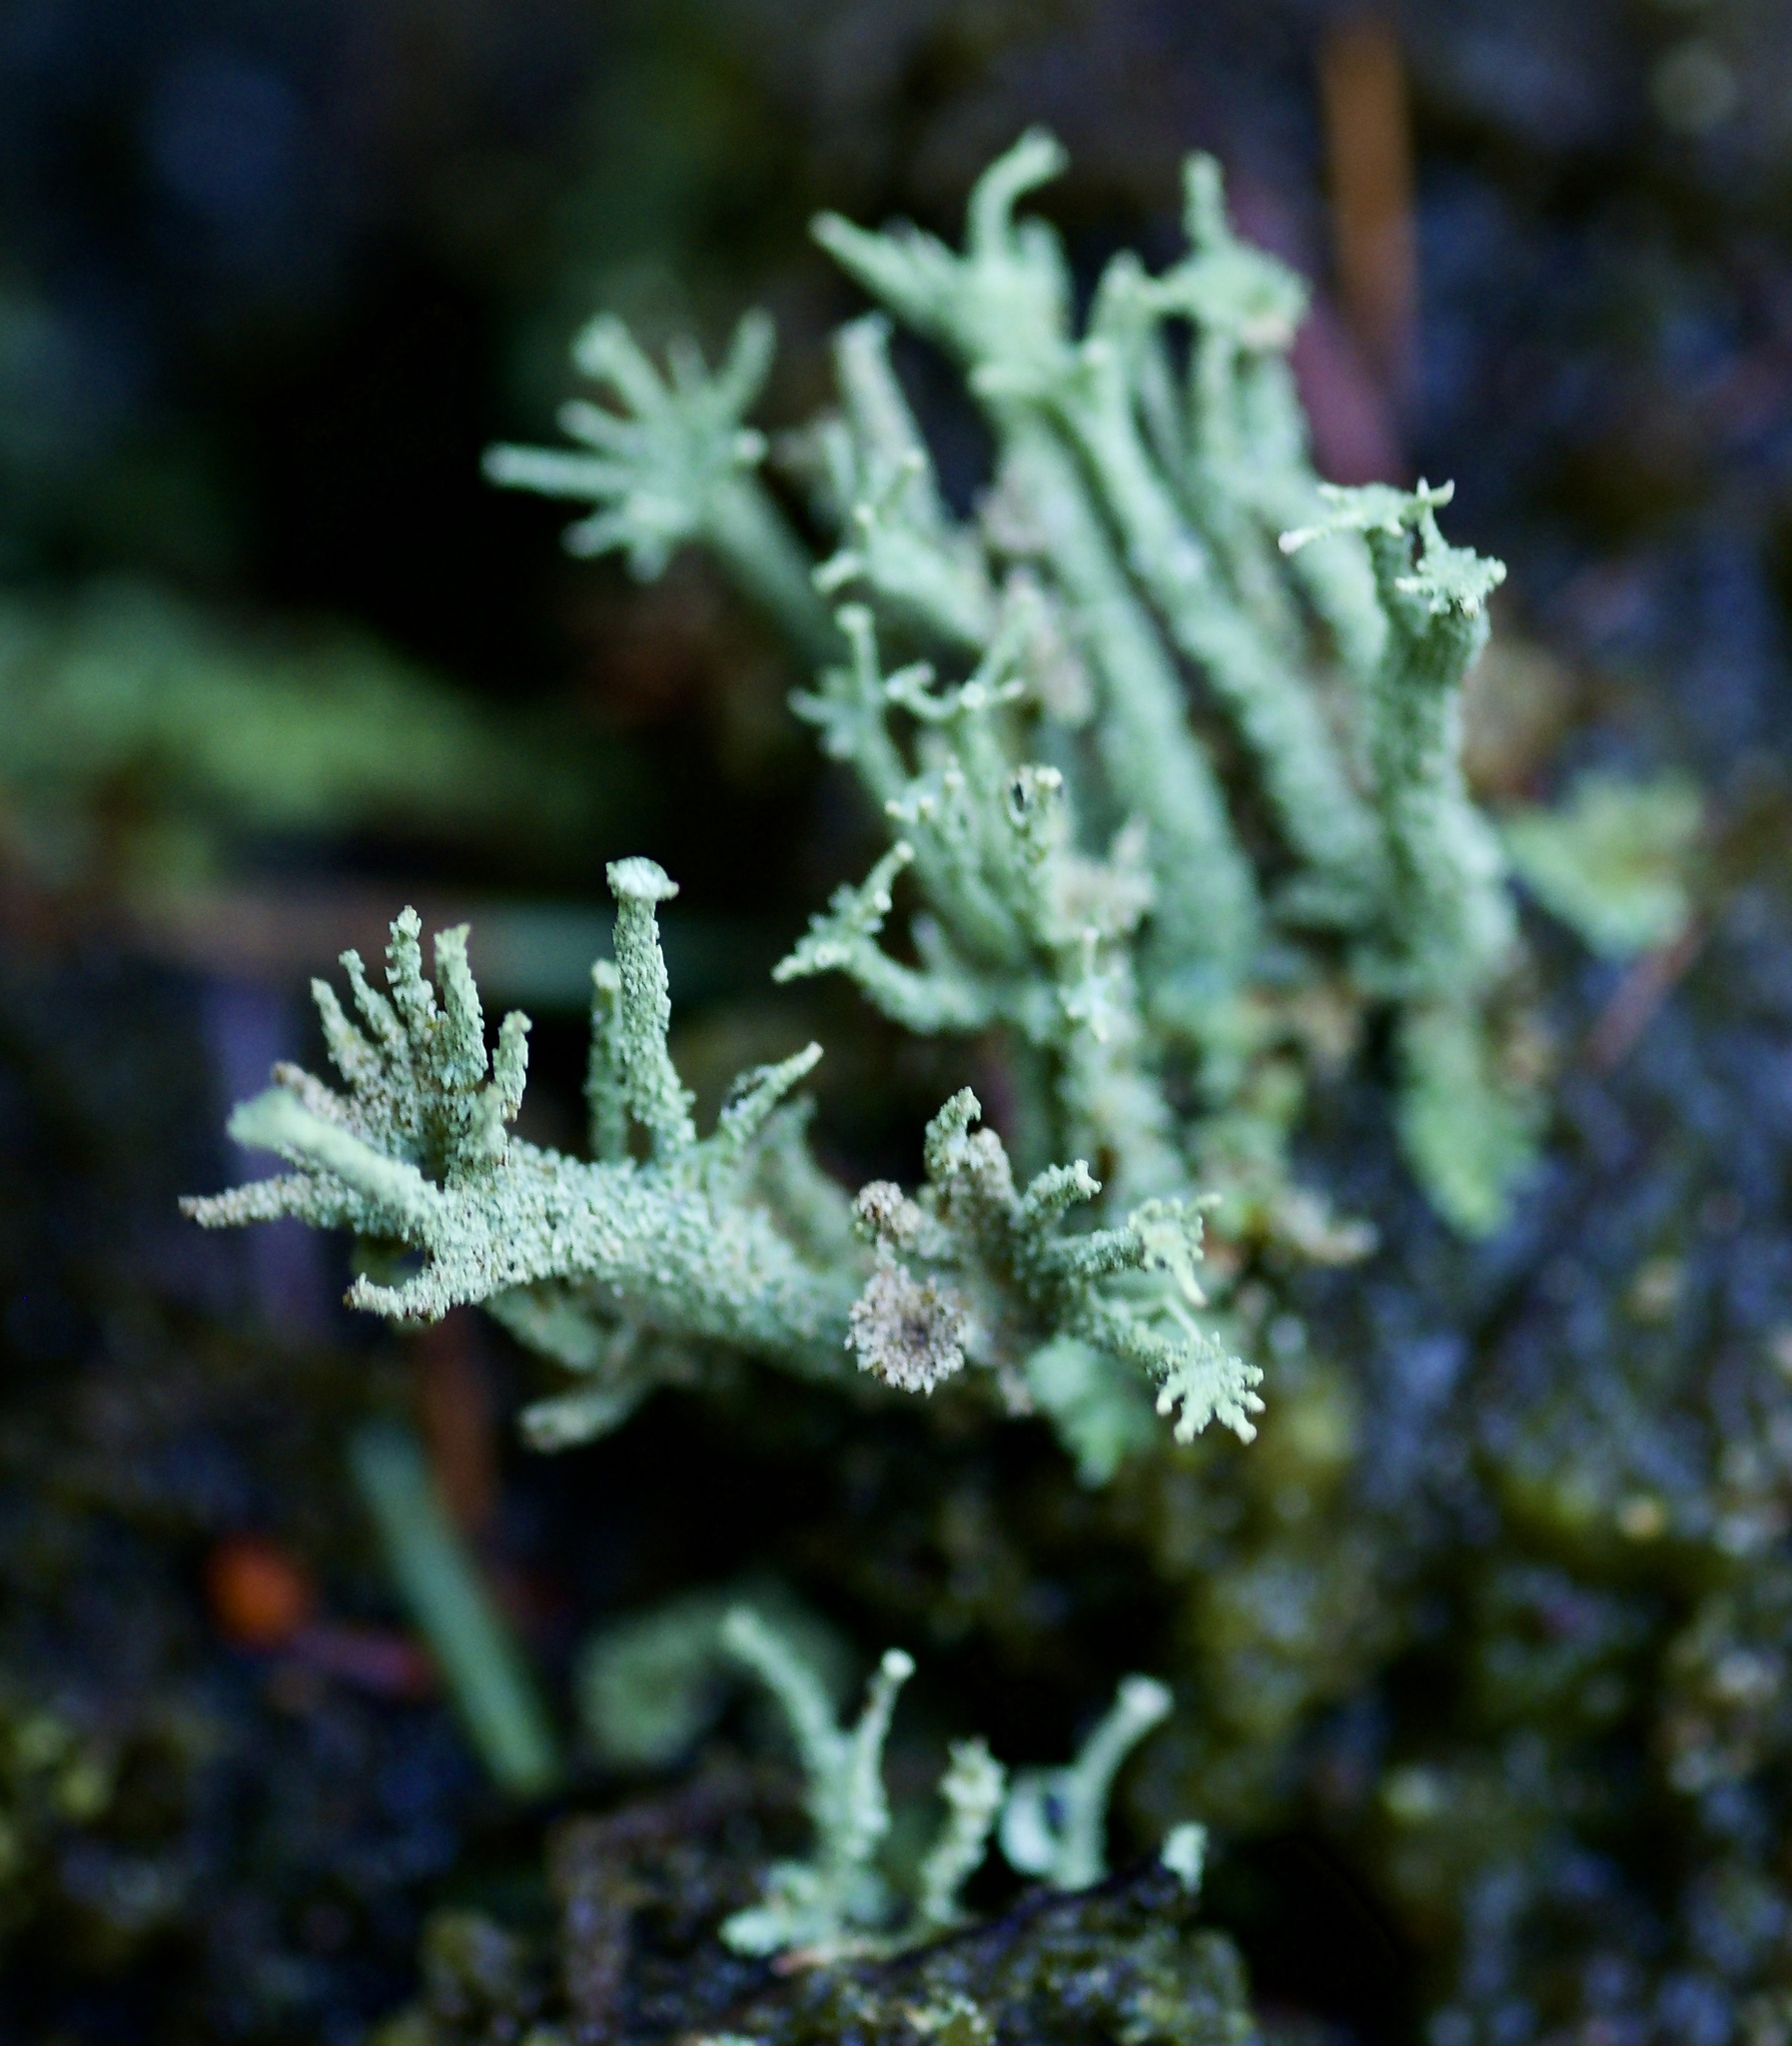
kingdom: Fungi
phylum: Ascomycota
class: Lecanoromycetes
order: Lecanorales
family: Cladoniaceae
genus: Cladonia
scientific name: Cladonia polydactyla
